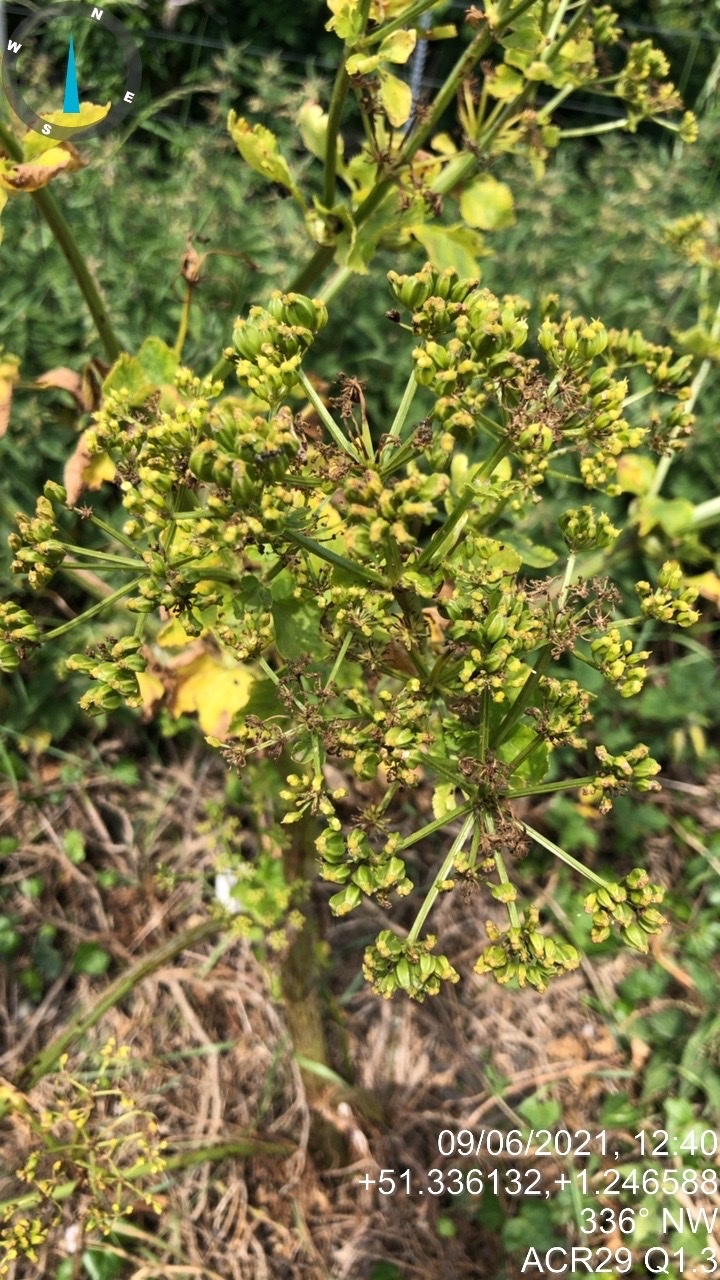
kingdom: Plantae
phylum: Tracheophyta
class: Magnoliopsida
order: Apiales
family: Apiaceae
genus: Smyrnium
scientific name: Smyrnium olusatrum
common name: Alexanders
